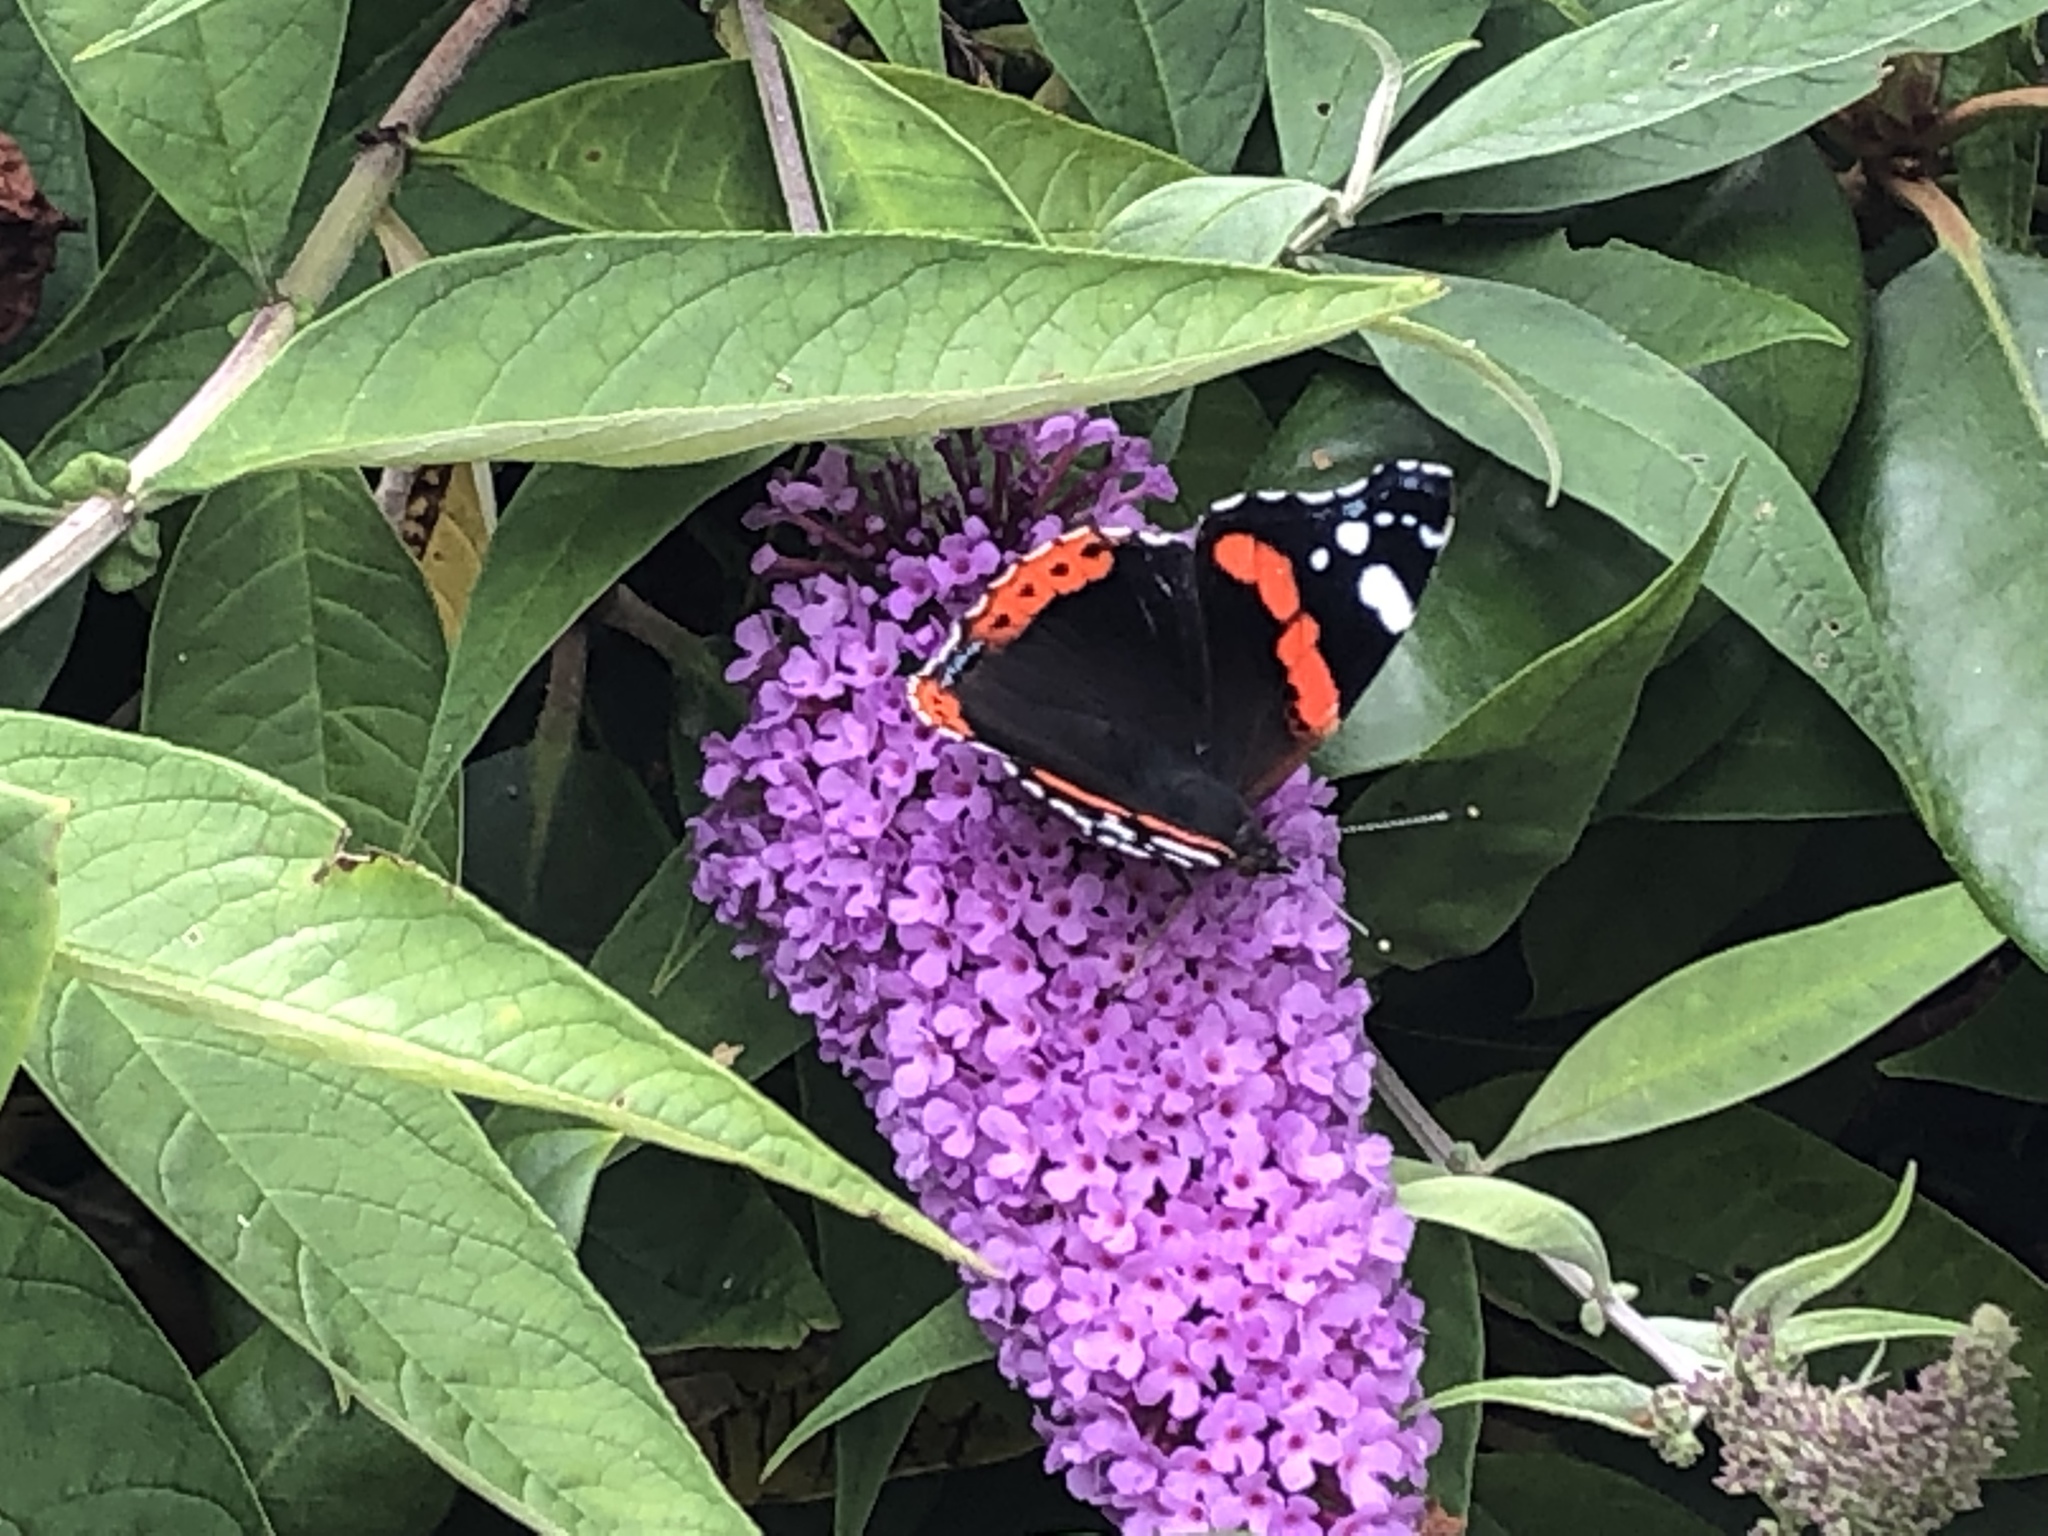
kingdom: Animalia
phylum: Arthropoda
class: Insecta
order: Lepidoptera
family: Nymphalidae
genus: Vanessa
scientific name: Vanessa atalanta
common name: Red admiral
